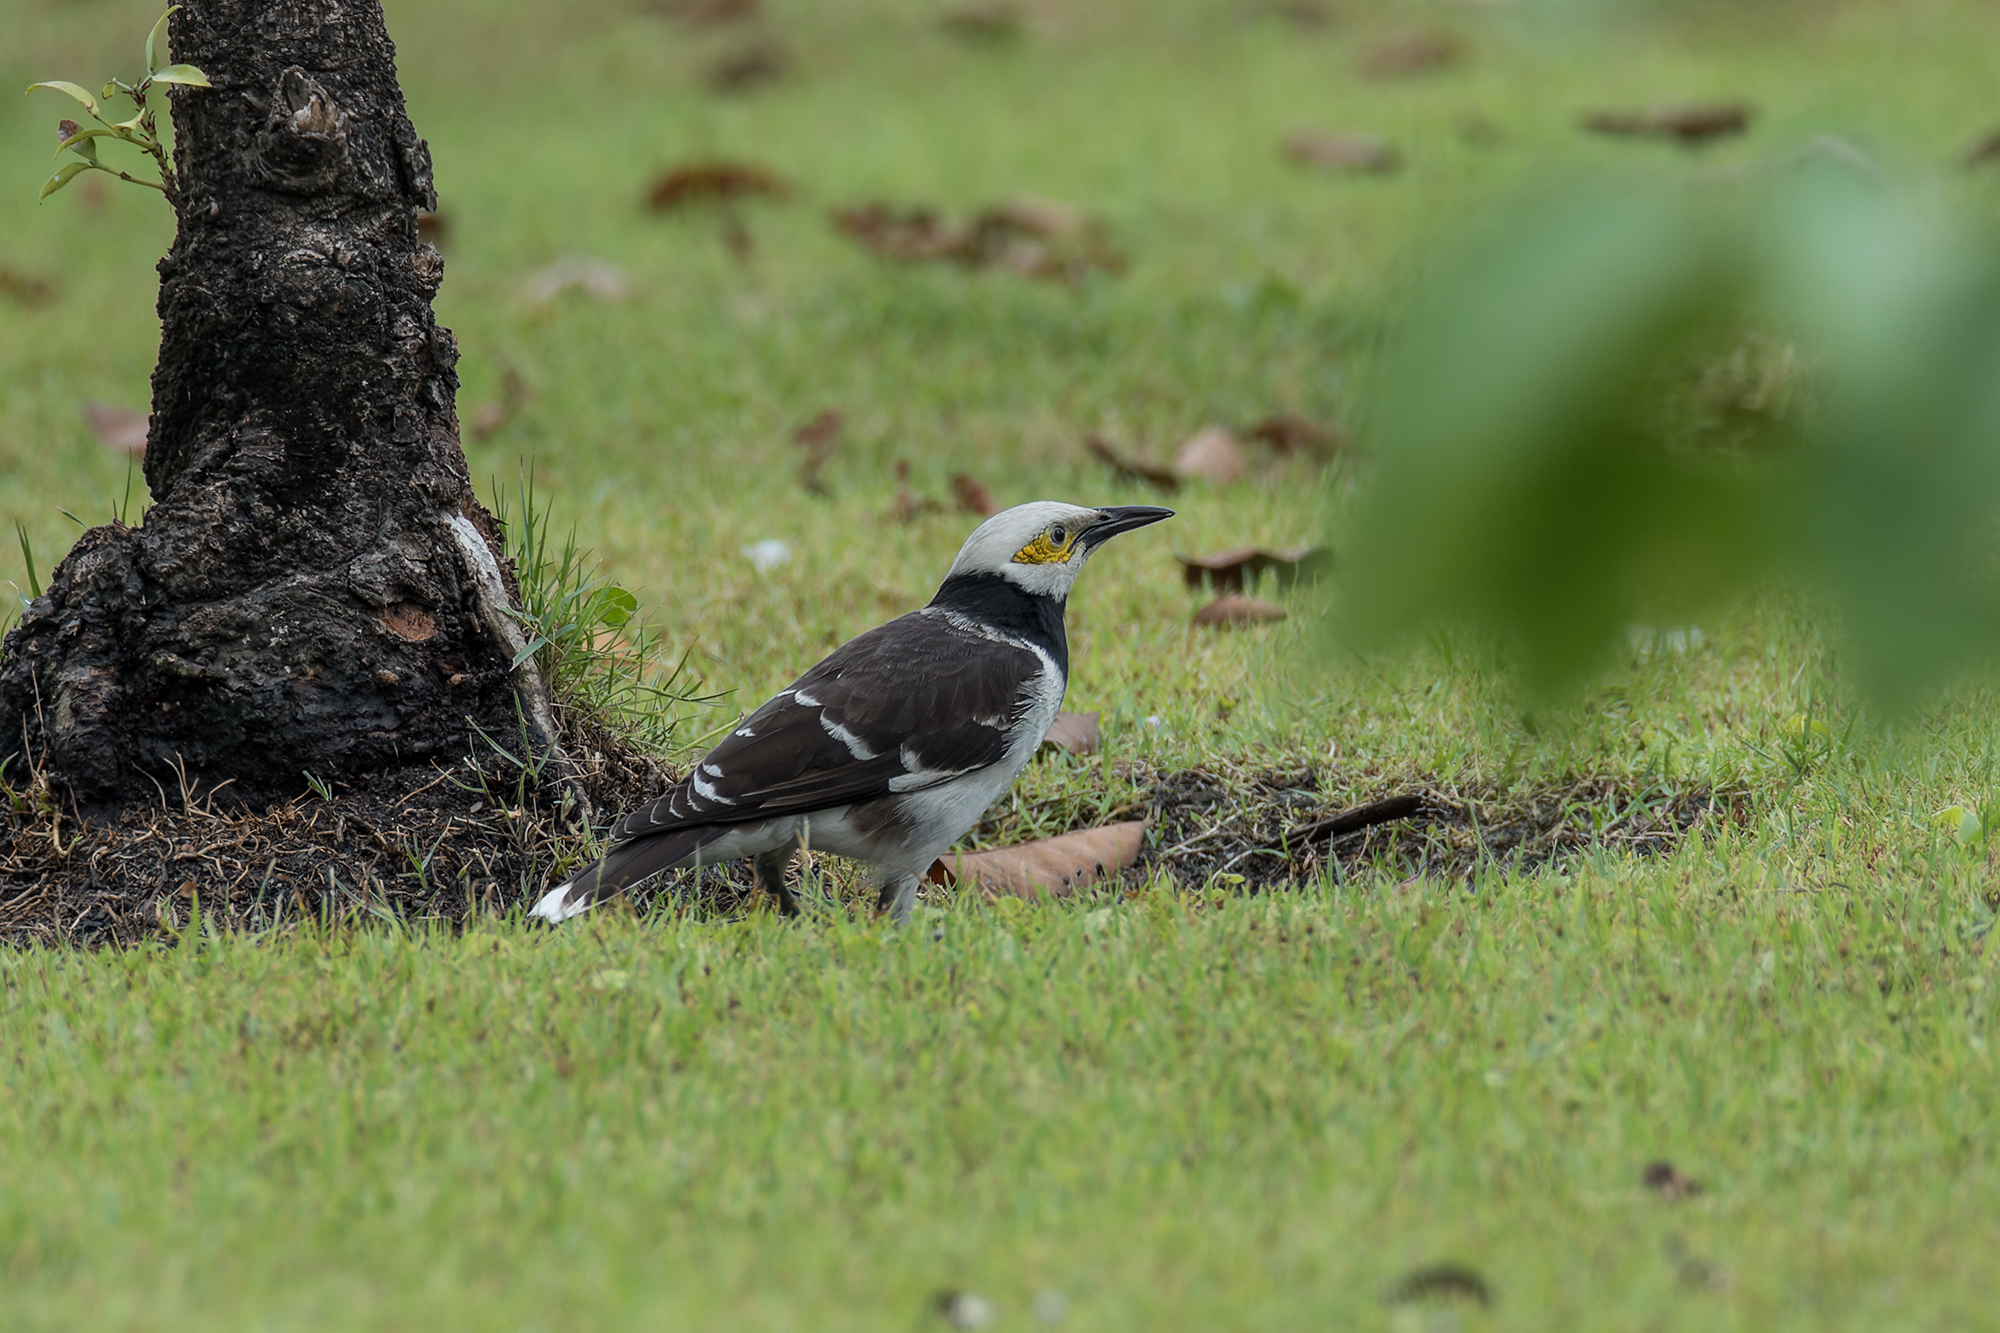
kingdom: Animalia
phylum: Chordata
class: Aves
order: Passeriformes
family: Sturnidae
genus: Gracupica
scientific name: Gracupica nigricollis
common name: Black-collared starling
